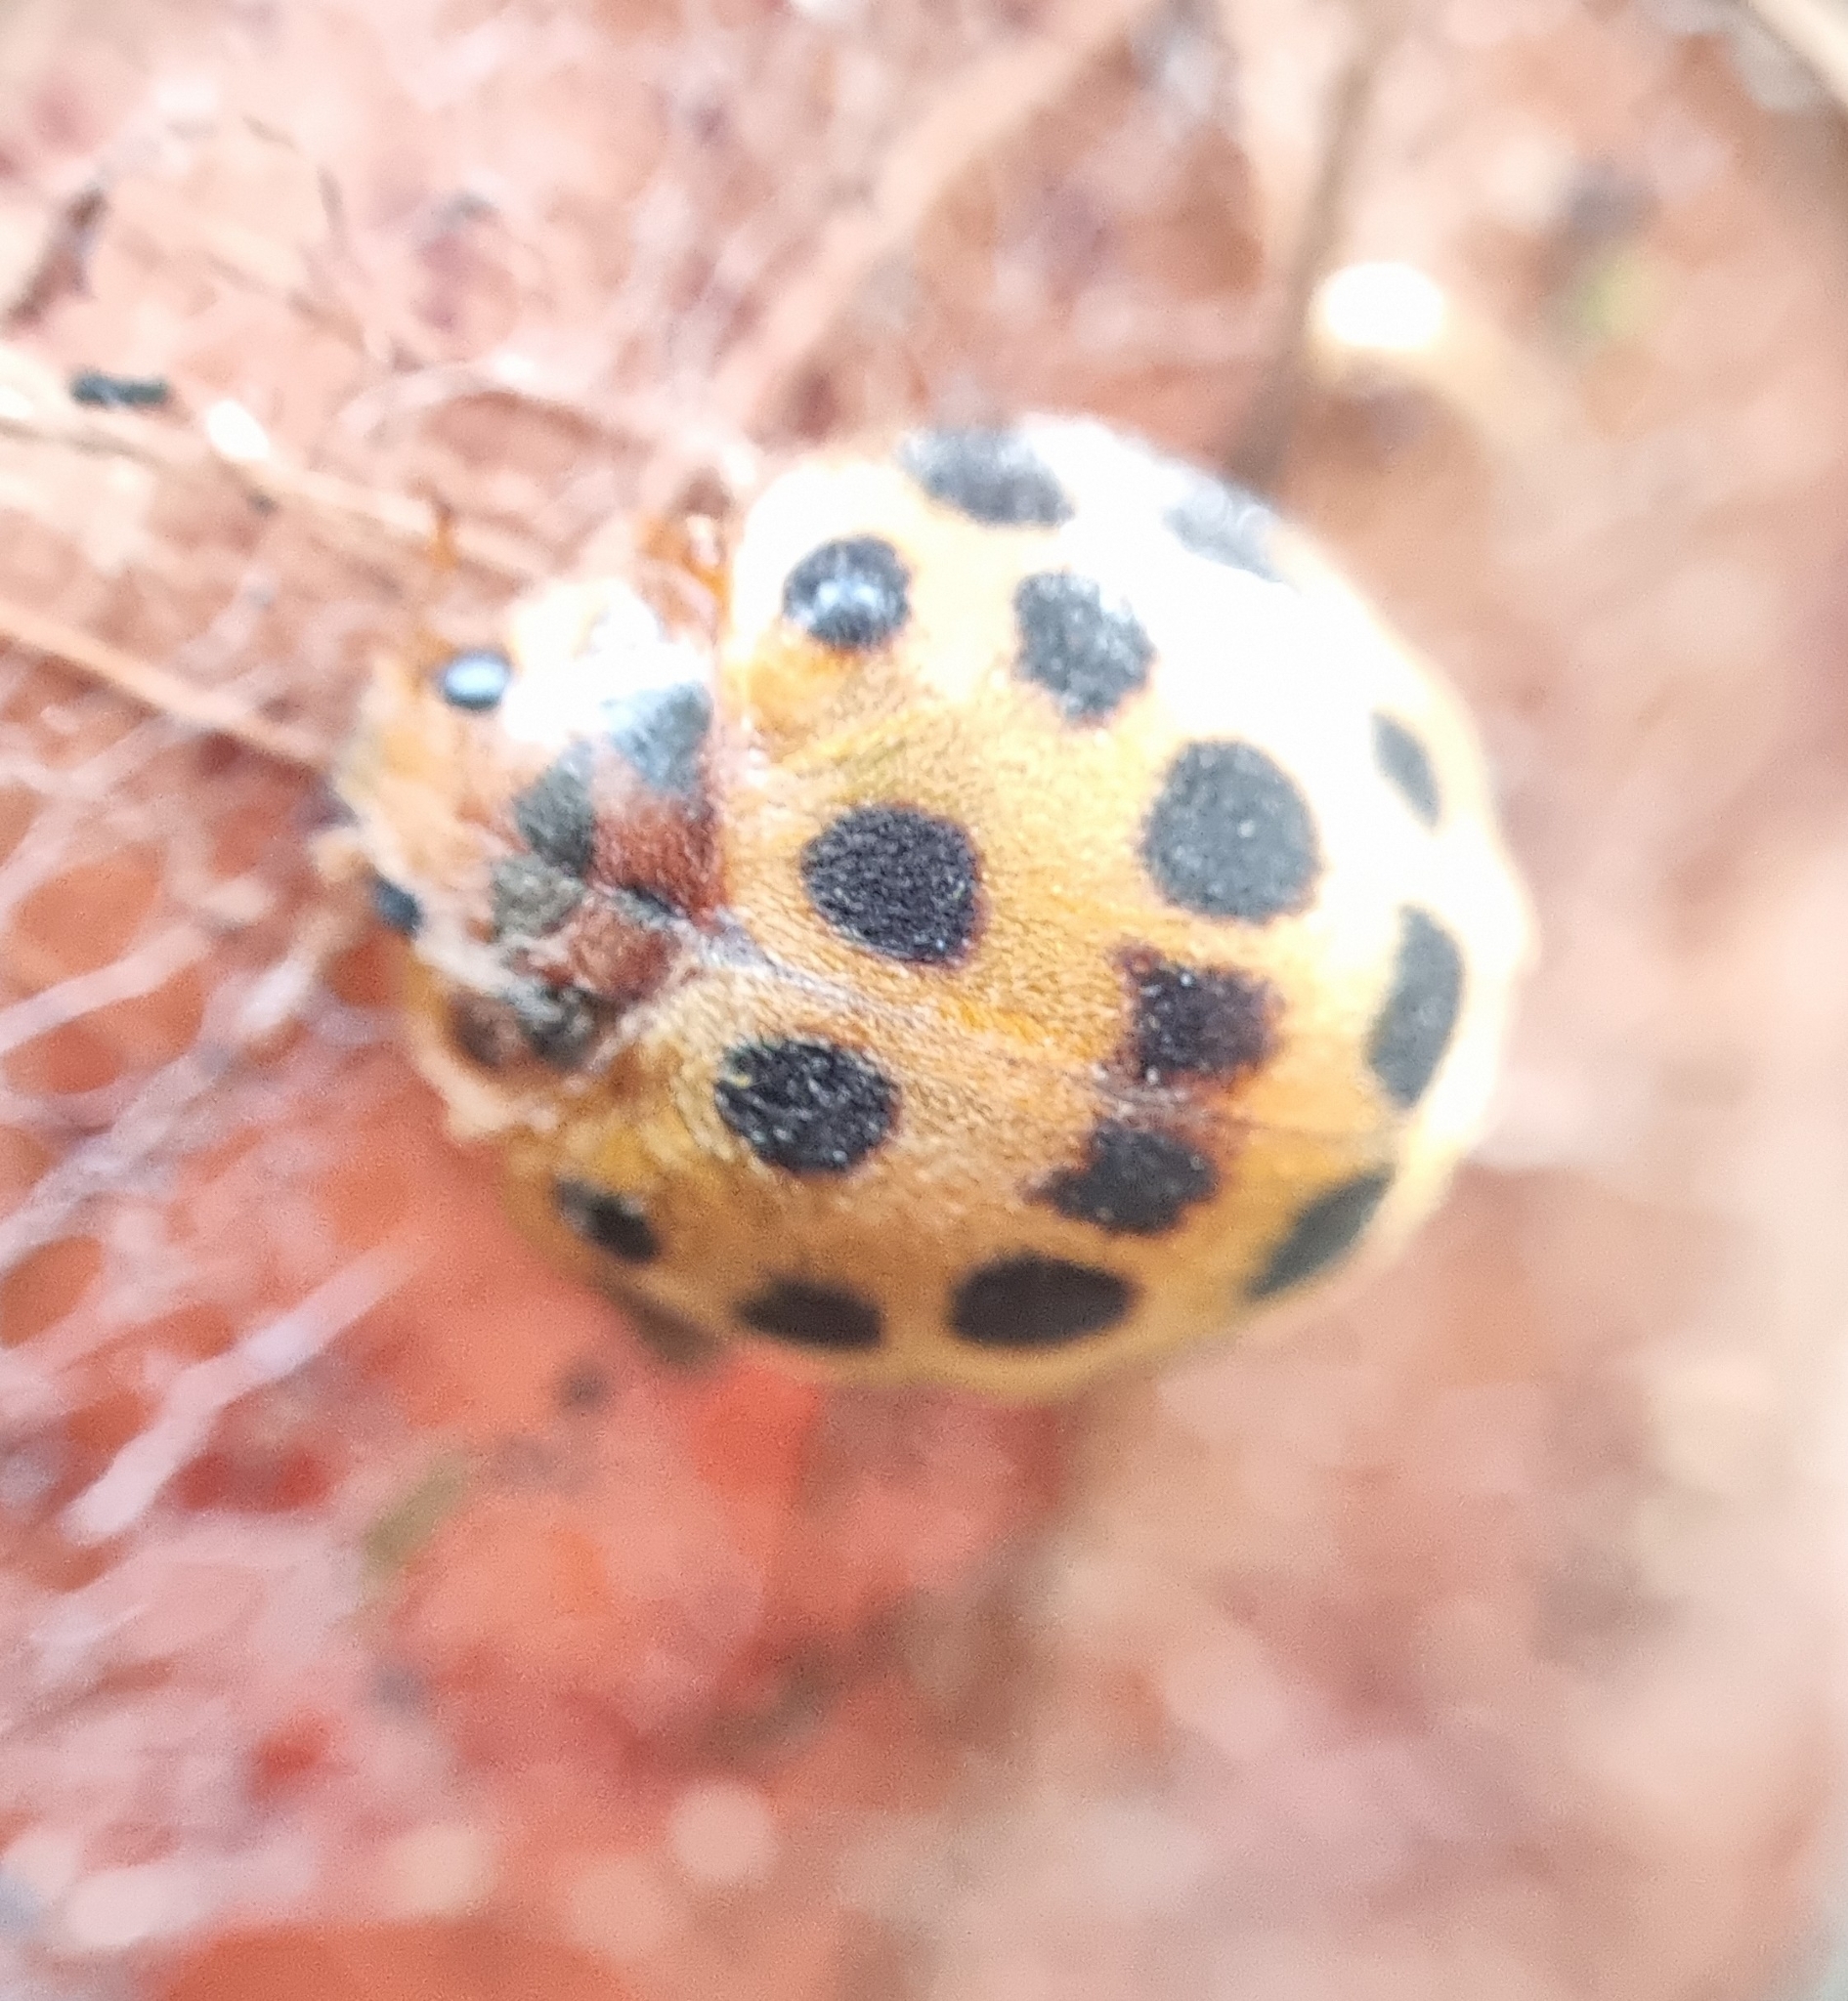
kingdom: Animalia
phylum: Arthropoda
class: Insecta
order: Coleoptera
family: Coccinellidae
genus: Henosepilachna
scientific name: Henosepilachna vigintioctopunctata
